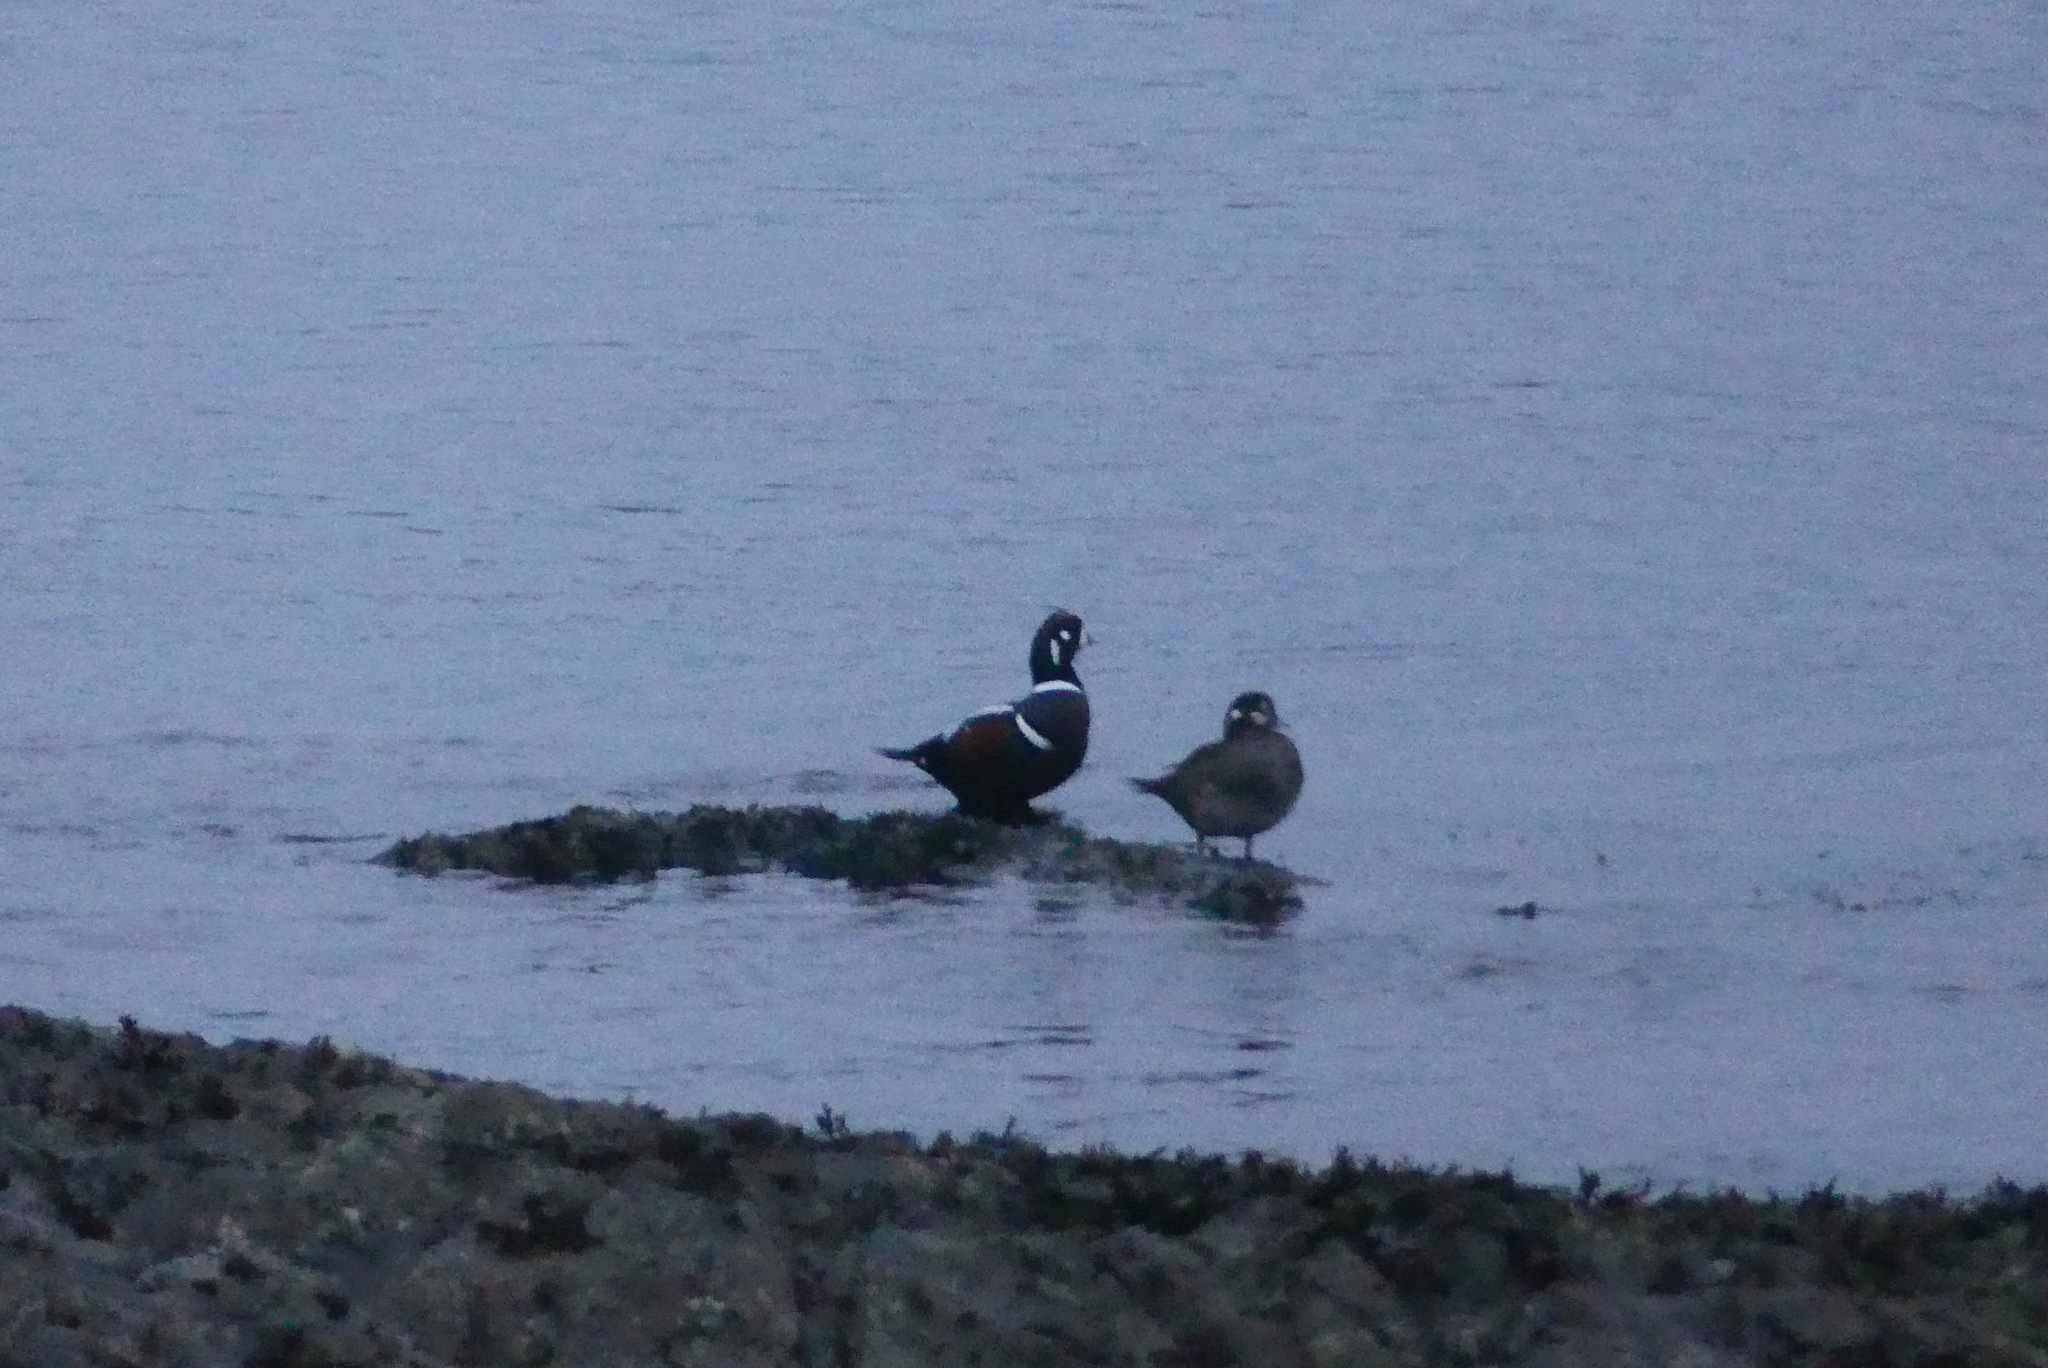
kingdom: Animalia
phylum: Chordata
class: Aves
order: Anseriformes
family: Anatidae
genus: Histrionicus
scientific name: Histrionicus histrionicus
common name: Harlequin duck
